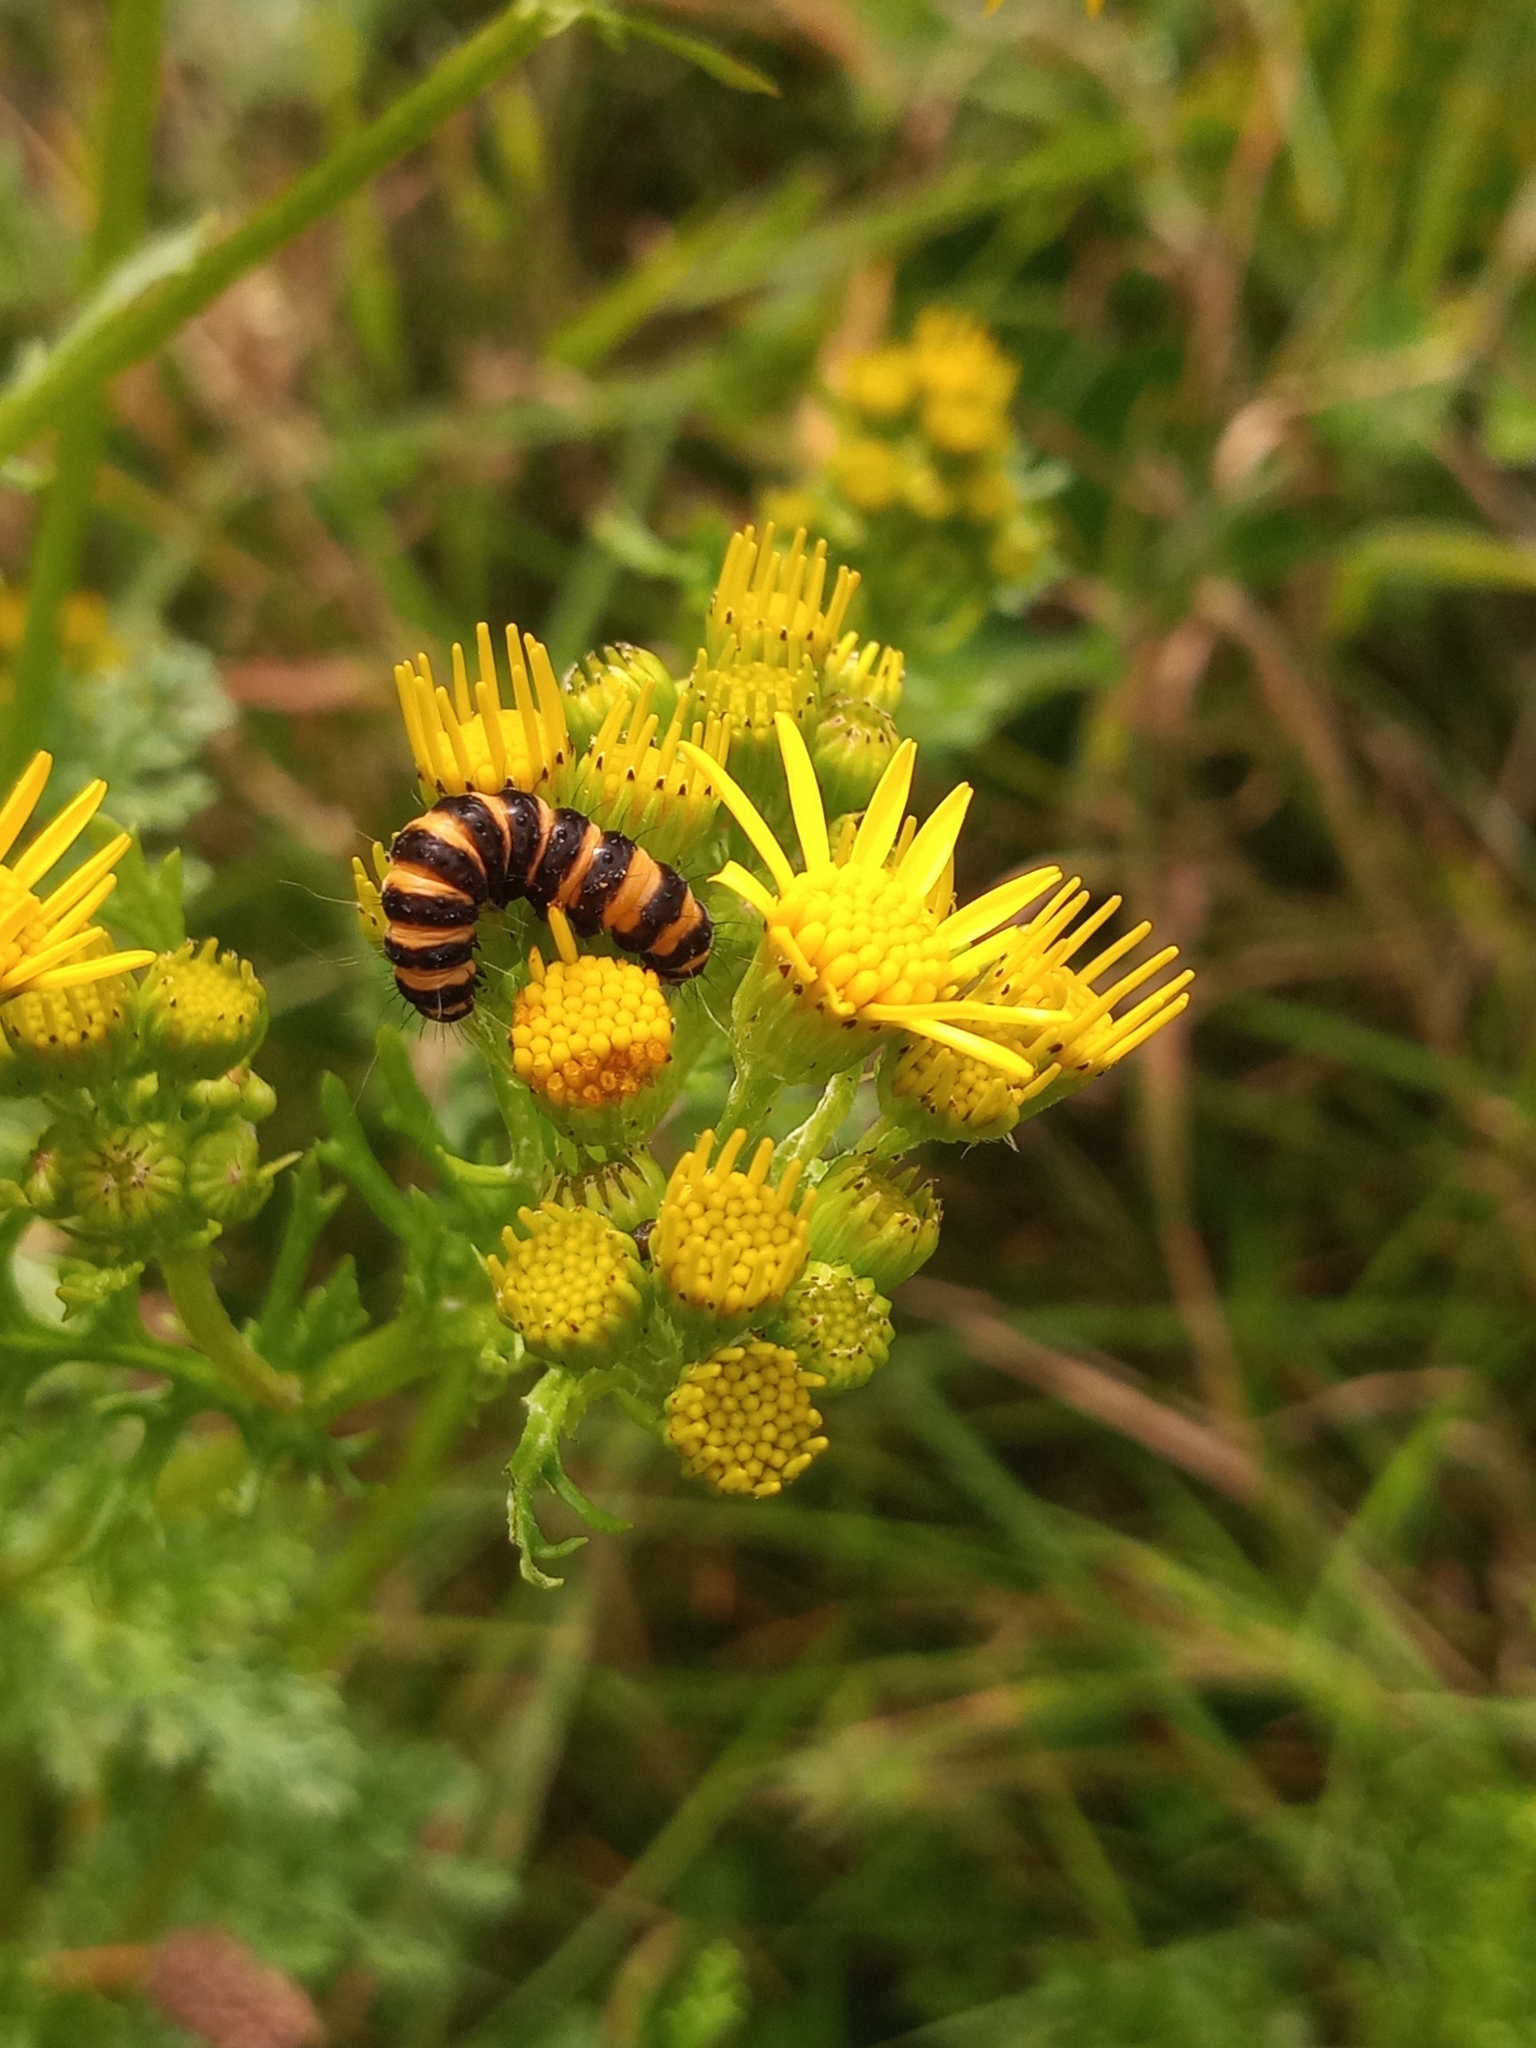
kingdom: Animalia
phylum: Arthropoda
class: Insecta
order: Lepidoptera
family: Erebidae
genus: Tyria
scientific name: Tyria jacobaeae
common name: Cinnabar
